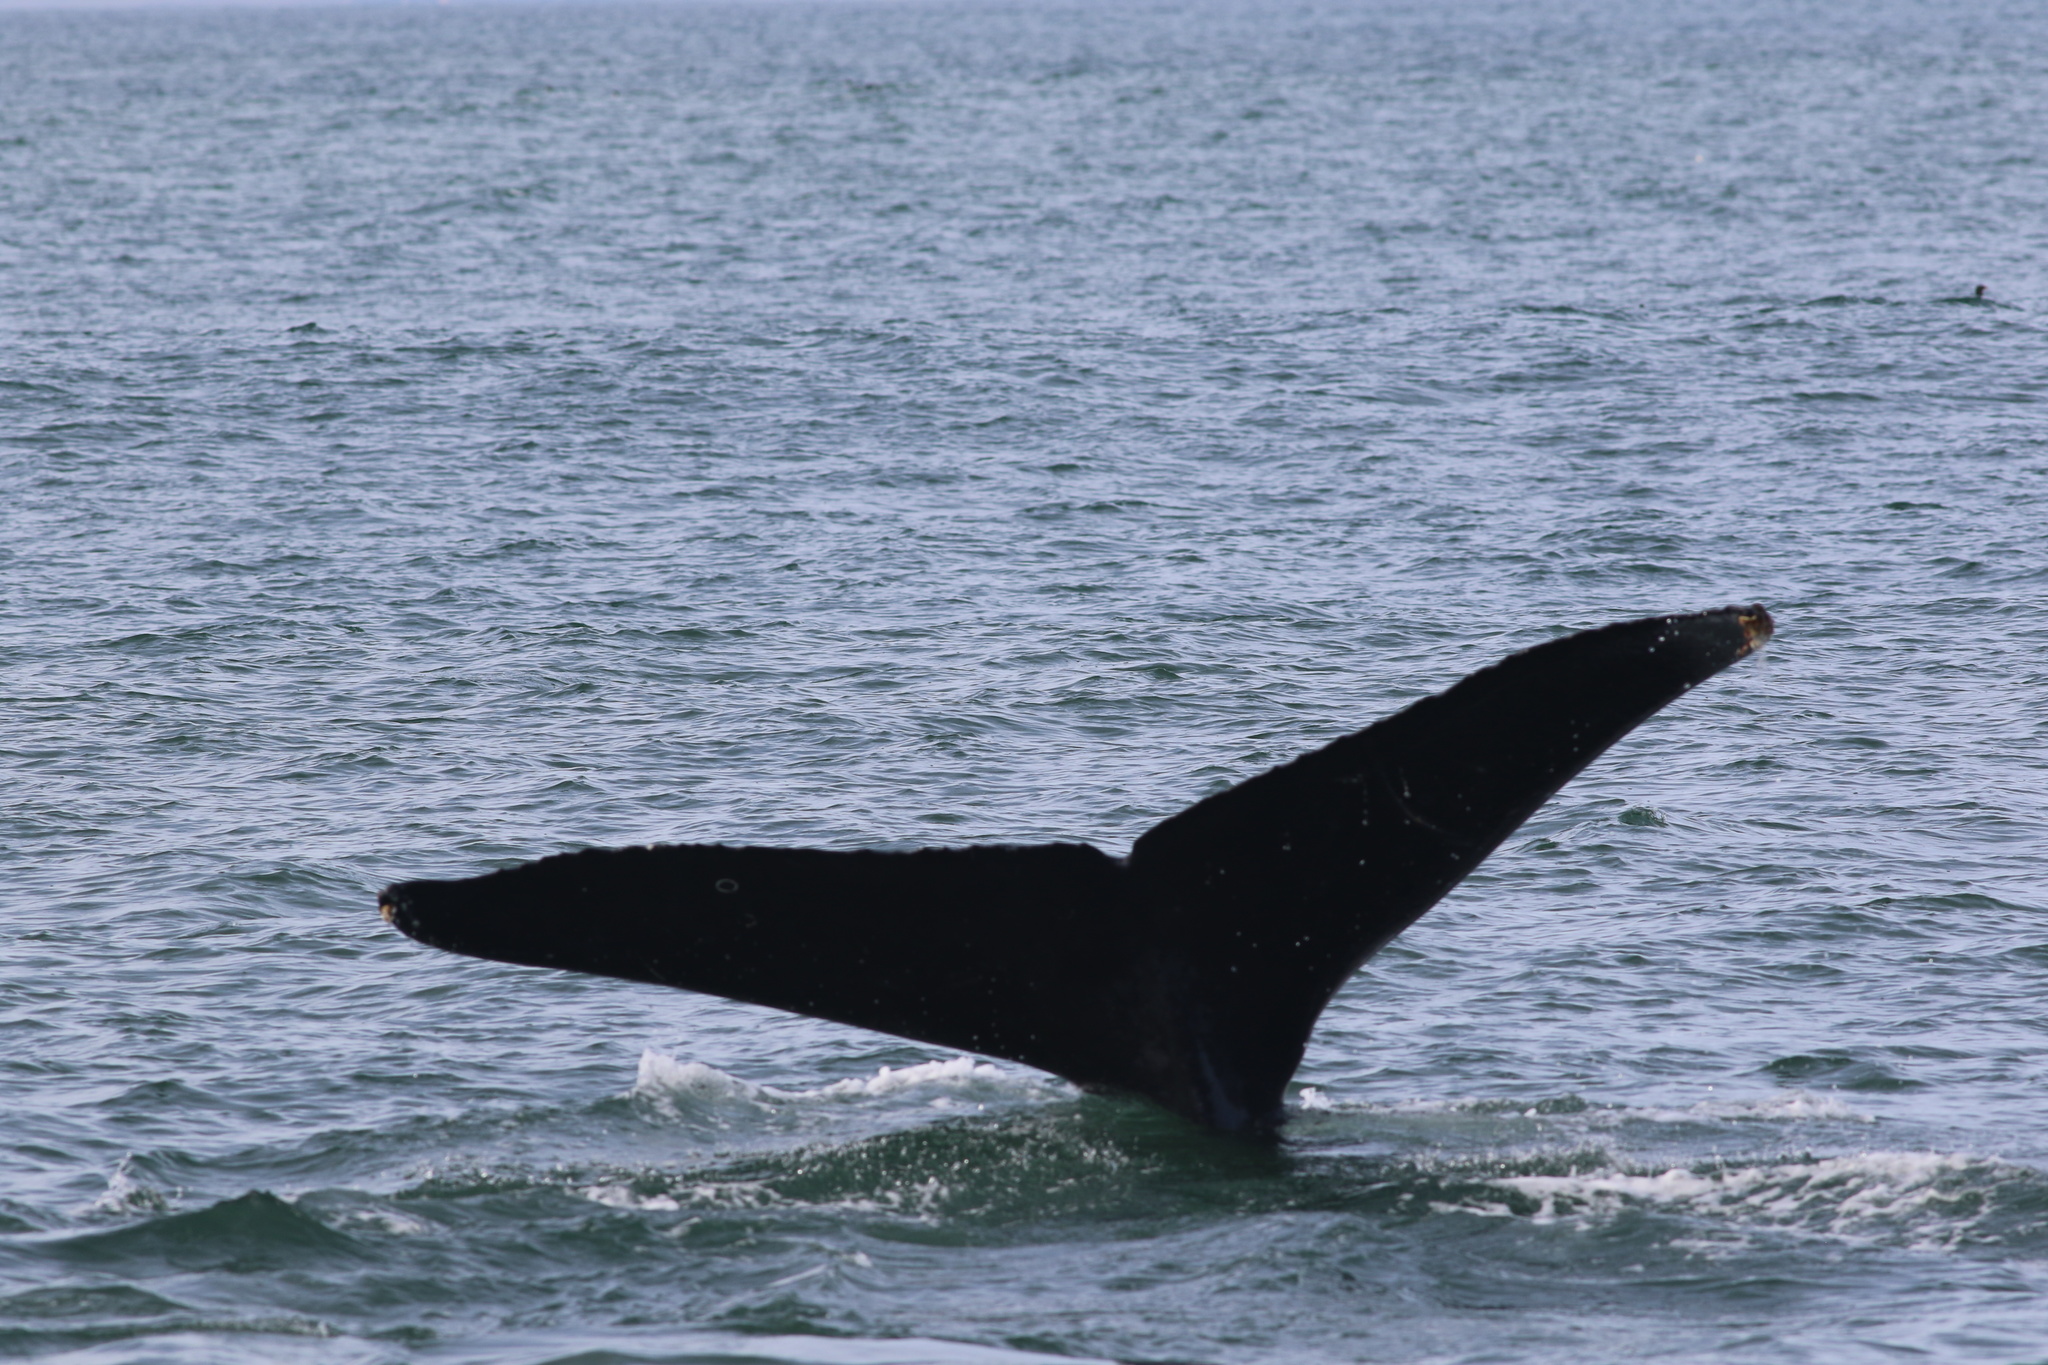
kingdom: Animalia
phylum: Chordata
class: Mammalia
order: Cetacea
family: Balaenopteridae
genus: Megaptera
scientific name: Megaptera novaeangliae
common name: Humpback whale
